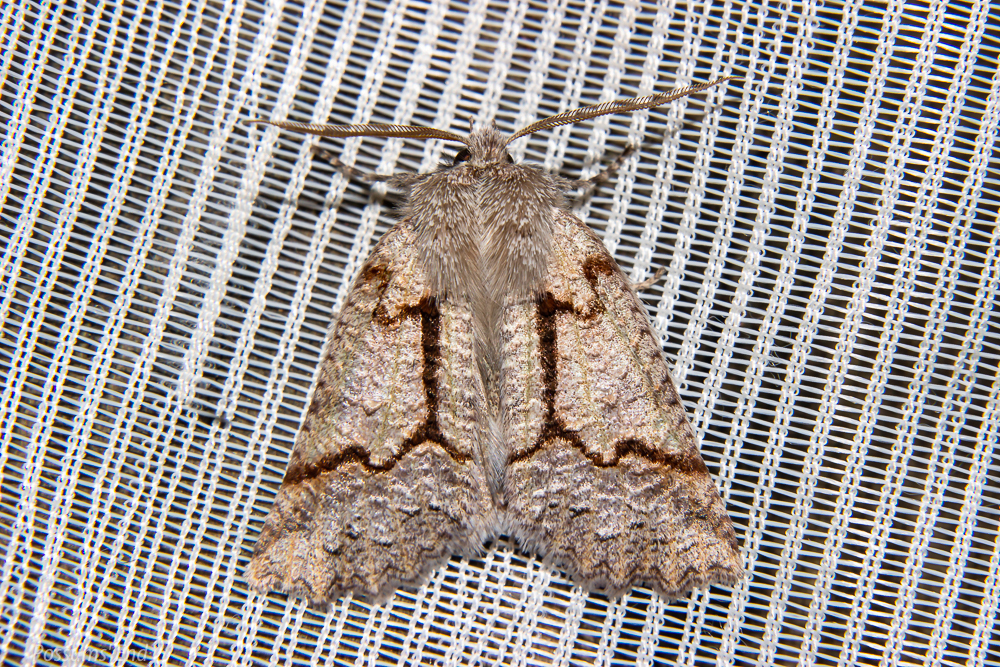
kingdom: Animalia
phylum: Arthropoda
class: Insecta
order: Lepidoptera
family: Geometridae
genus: Declana
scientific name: Declana floccosa
